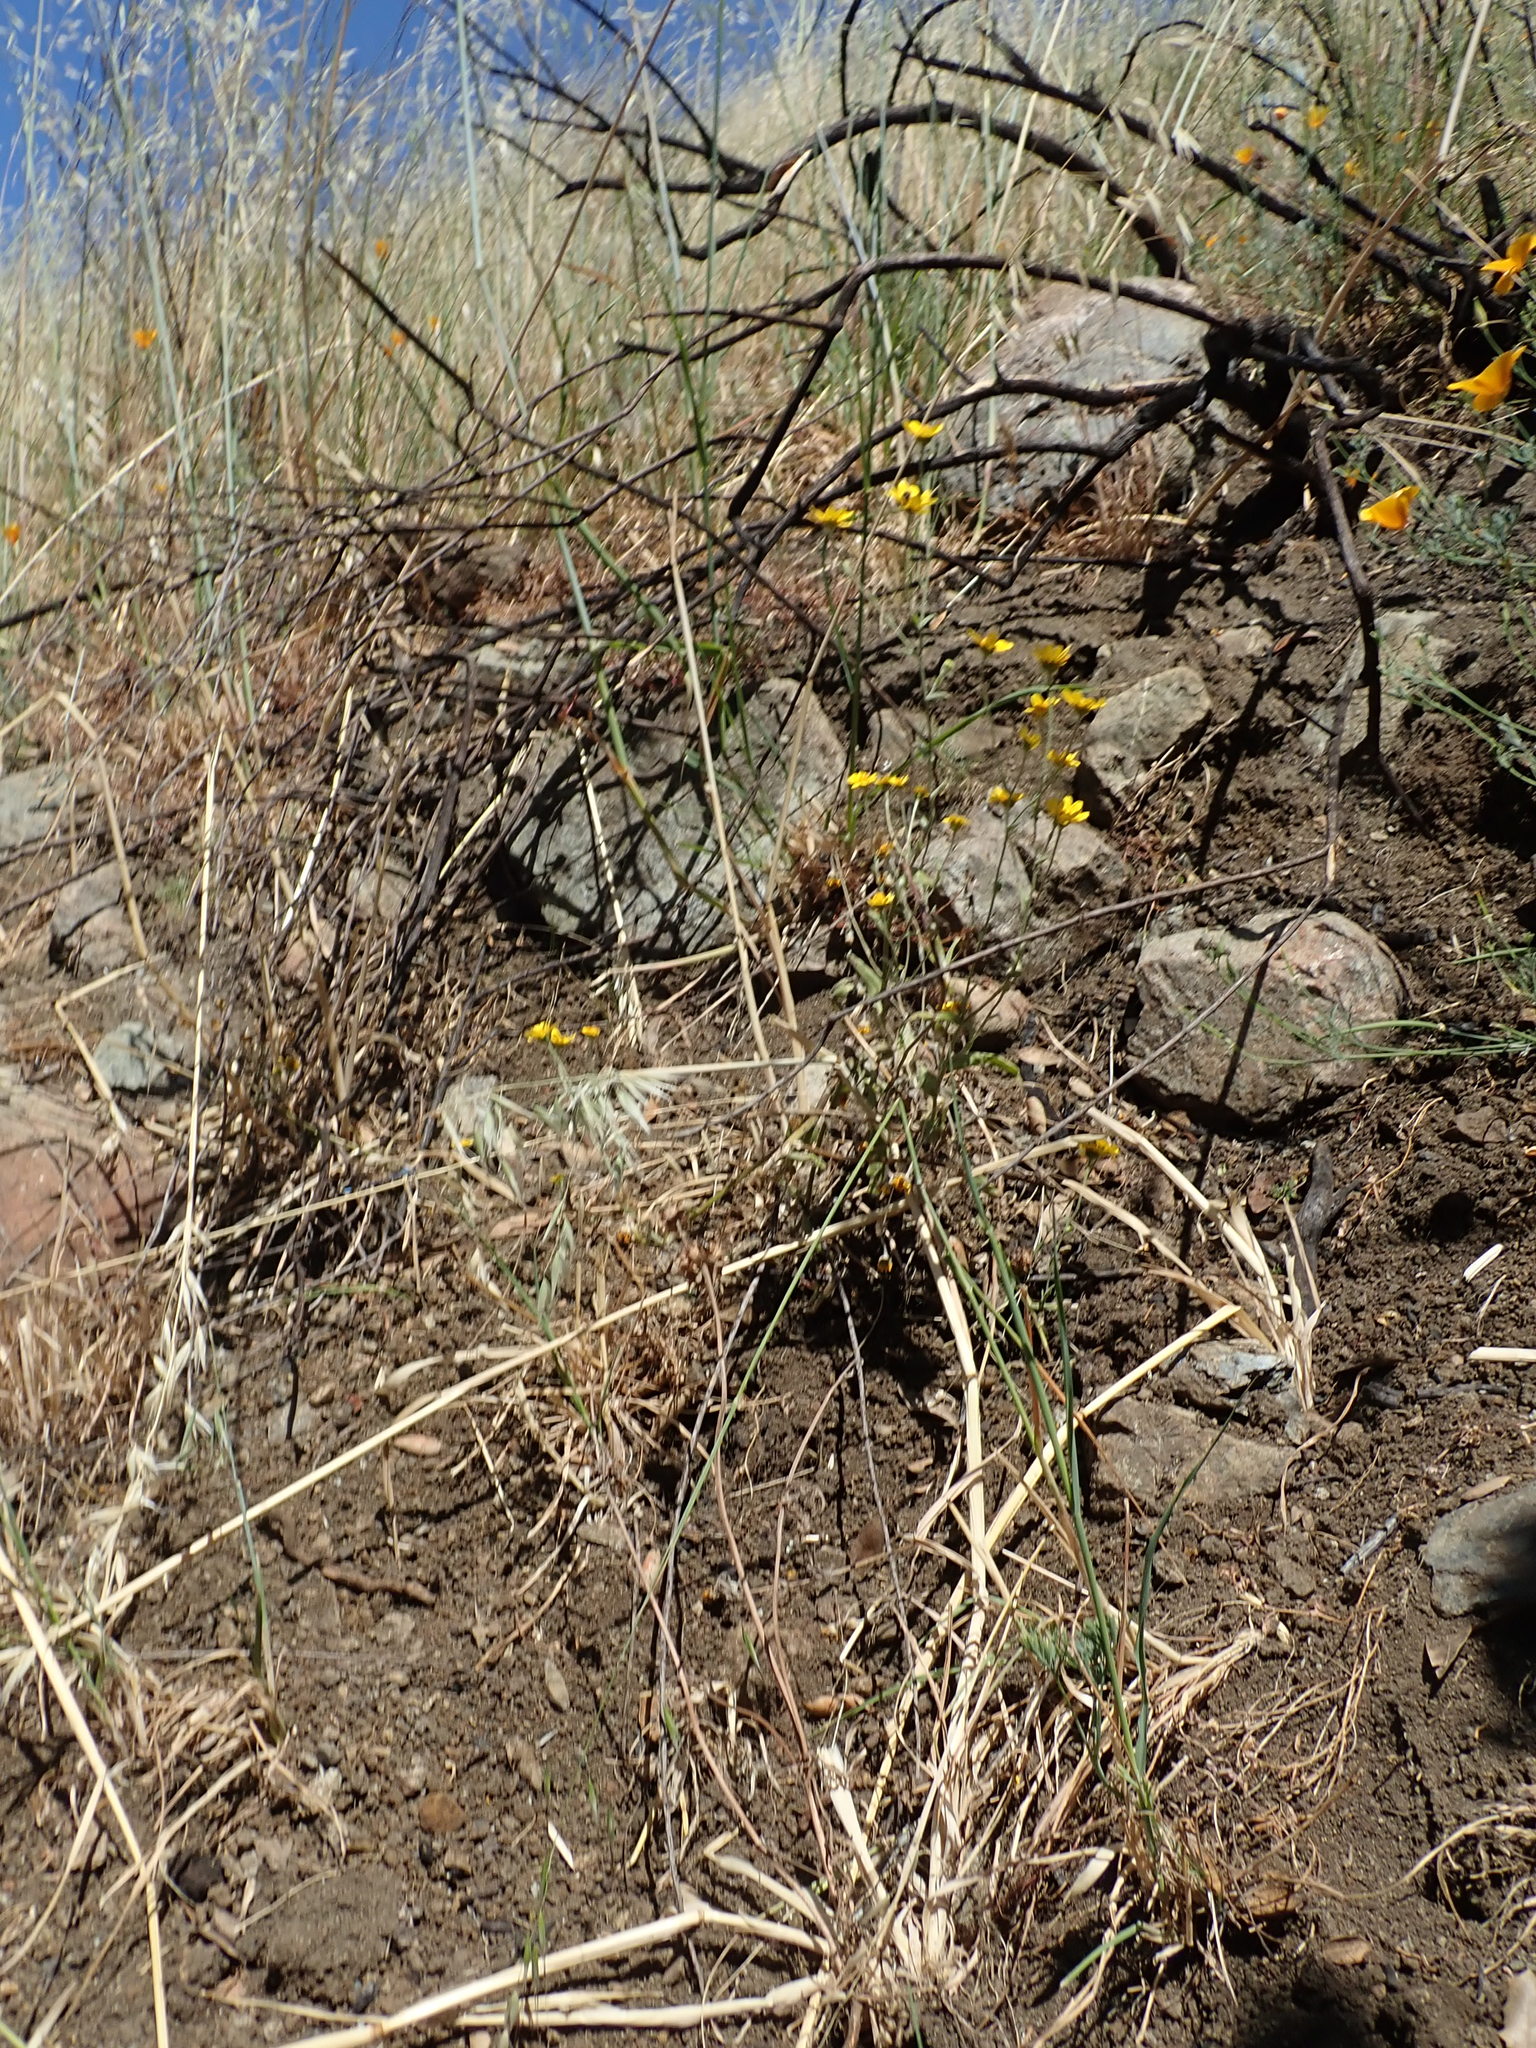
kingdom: Plantae
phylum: Tracheophyta
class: Magnoliopsida
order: Asterales
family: Asteraceae
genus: Monolopia
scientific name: Monolopia gracilens
